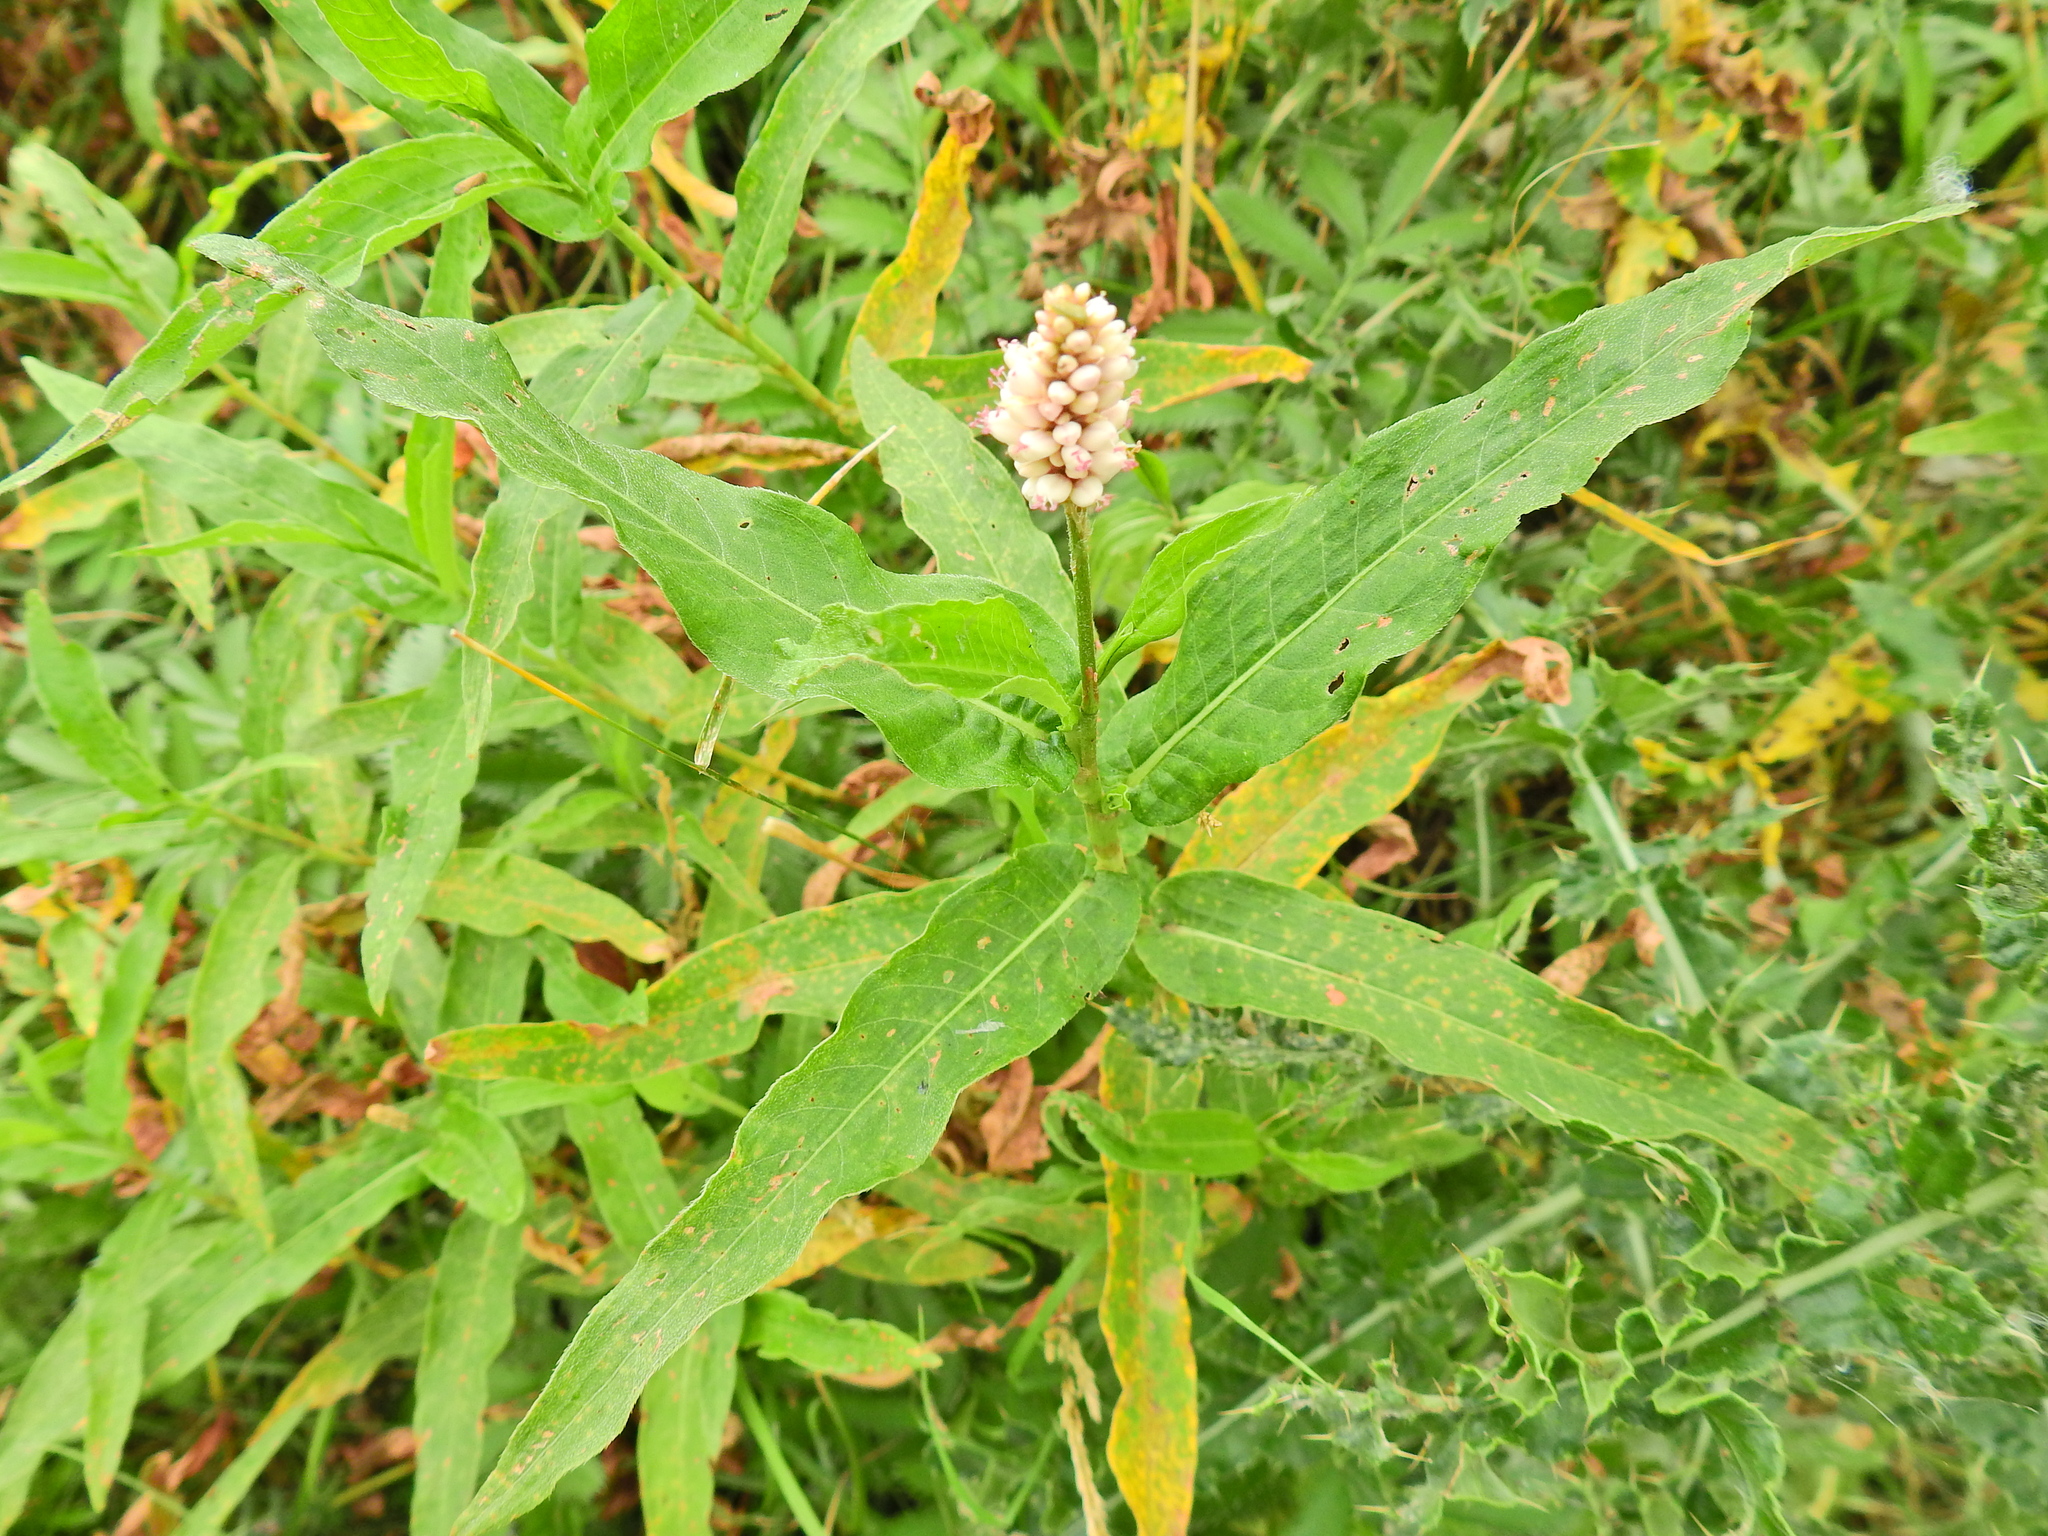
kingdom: Plantae
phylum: Tracheophyta
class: Magnoliopsida
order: Caryophyllales
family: Polygonaceae
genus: Persicaria
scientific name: Persicaria amphibia
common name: Amphibious bistort
